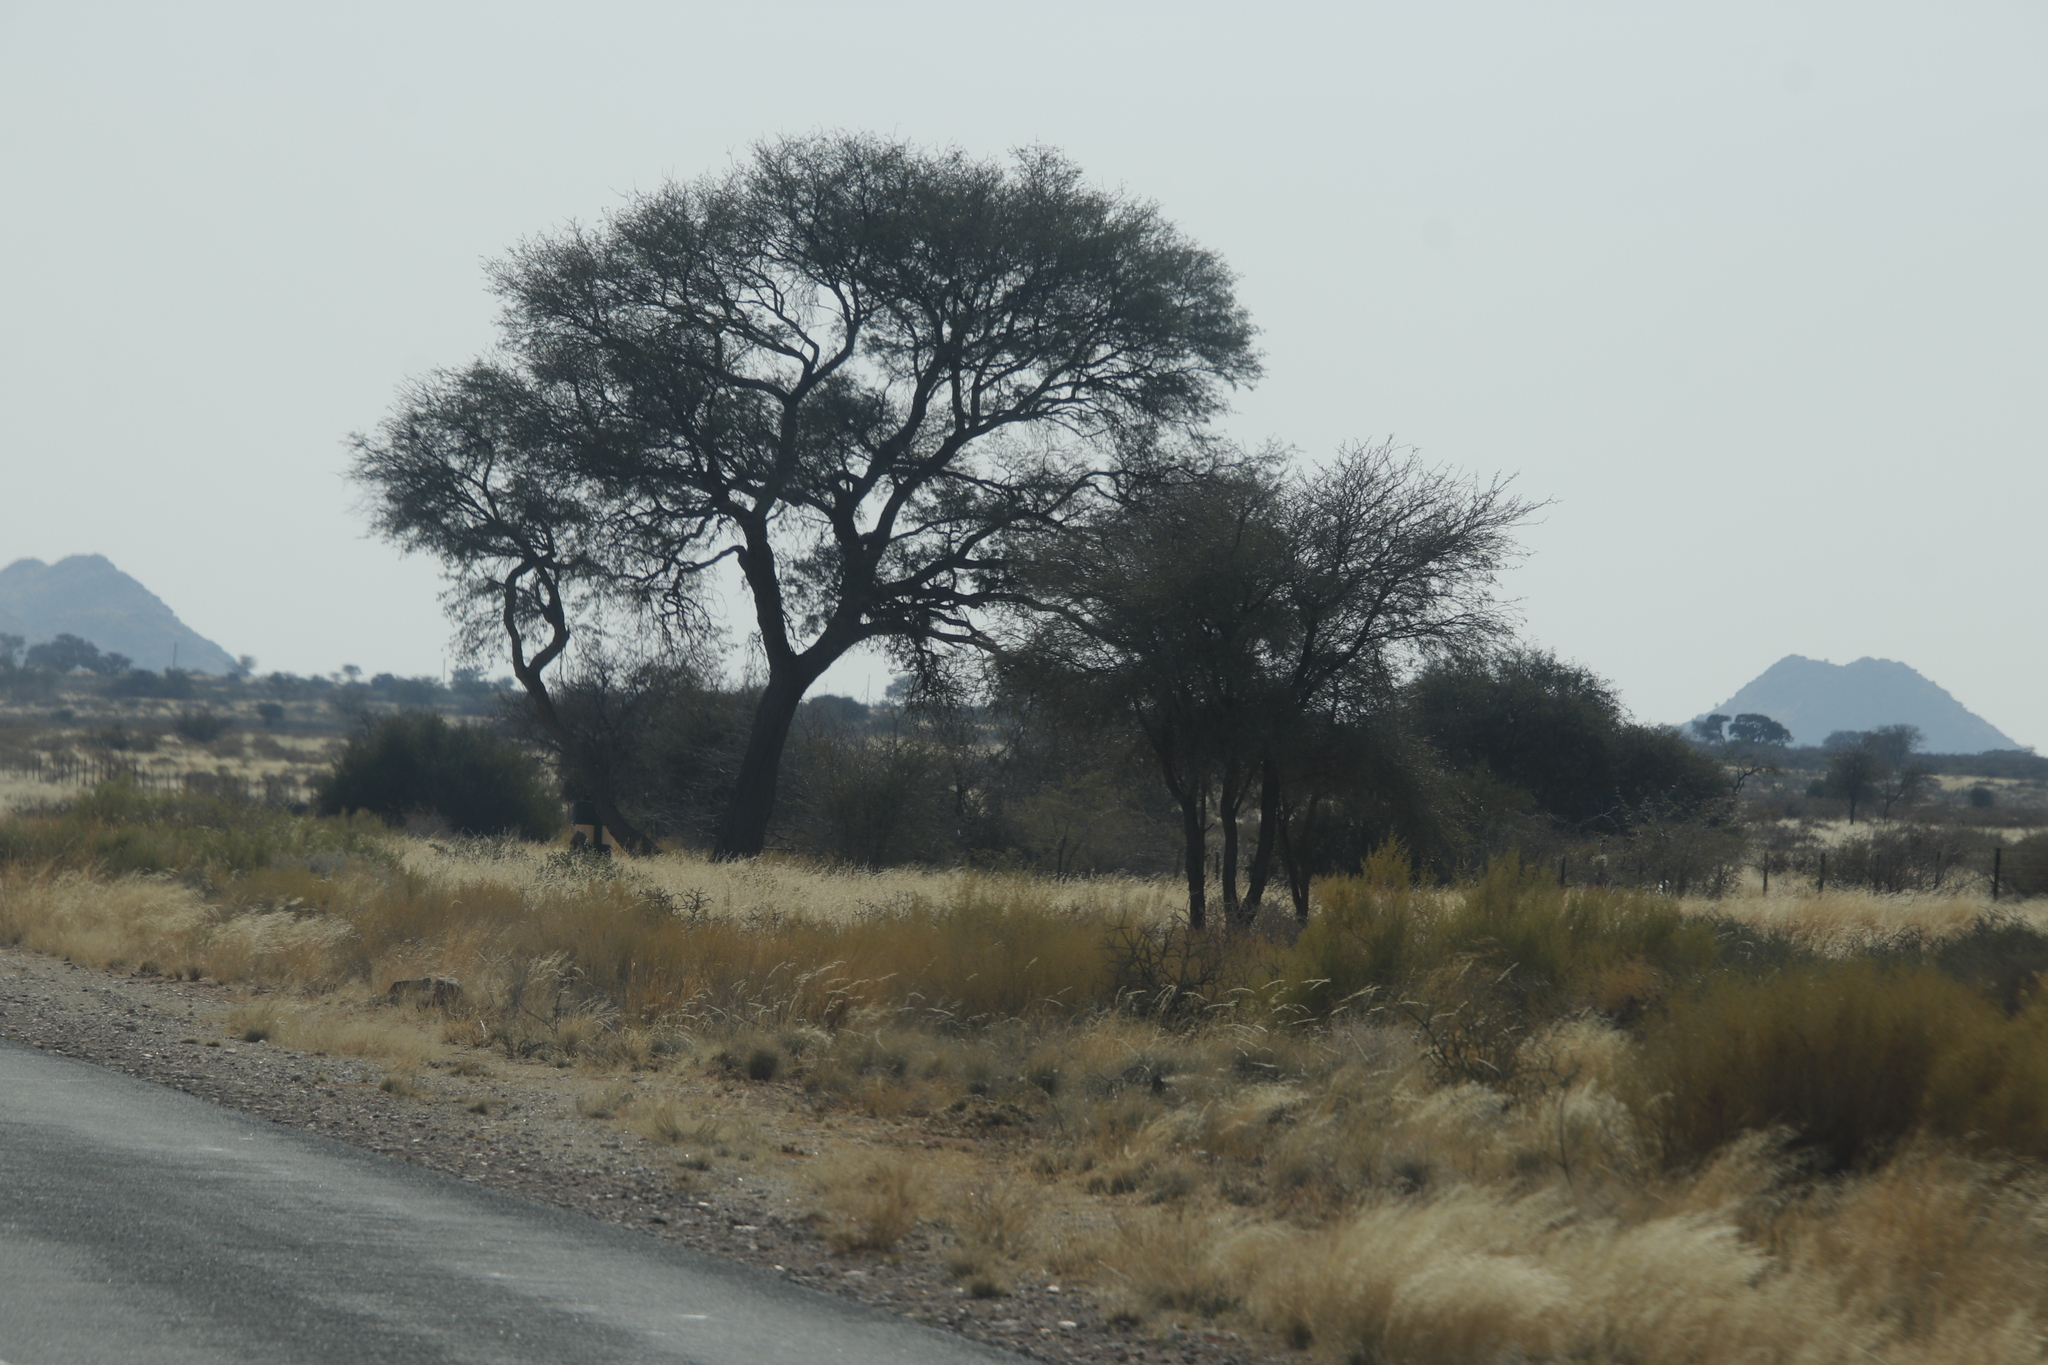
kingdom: Plantae
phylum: Tracheophyta
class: Magnoliopsida
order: Fabales
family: Fabaceae
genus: Vachellia
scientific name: Vachellia erioloba
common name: Camel thorn
